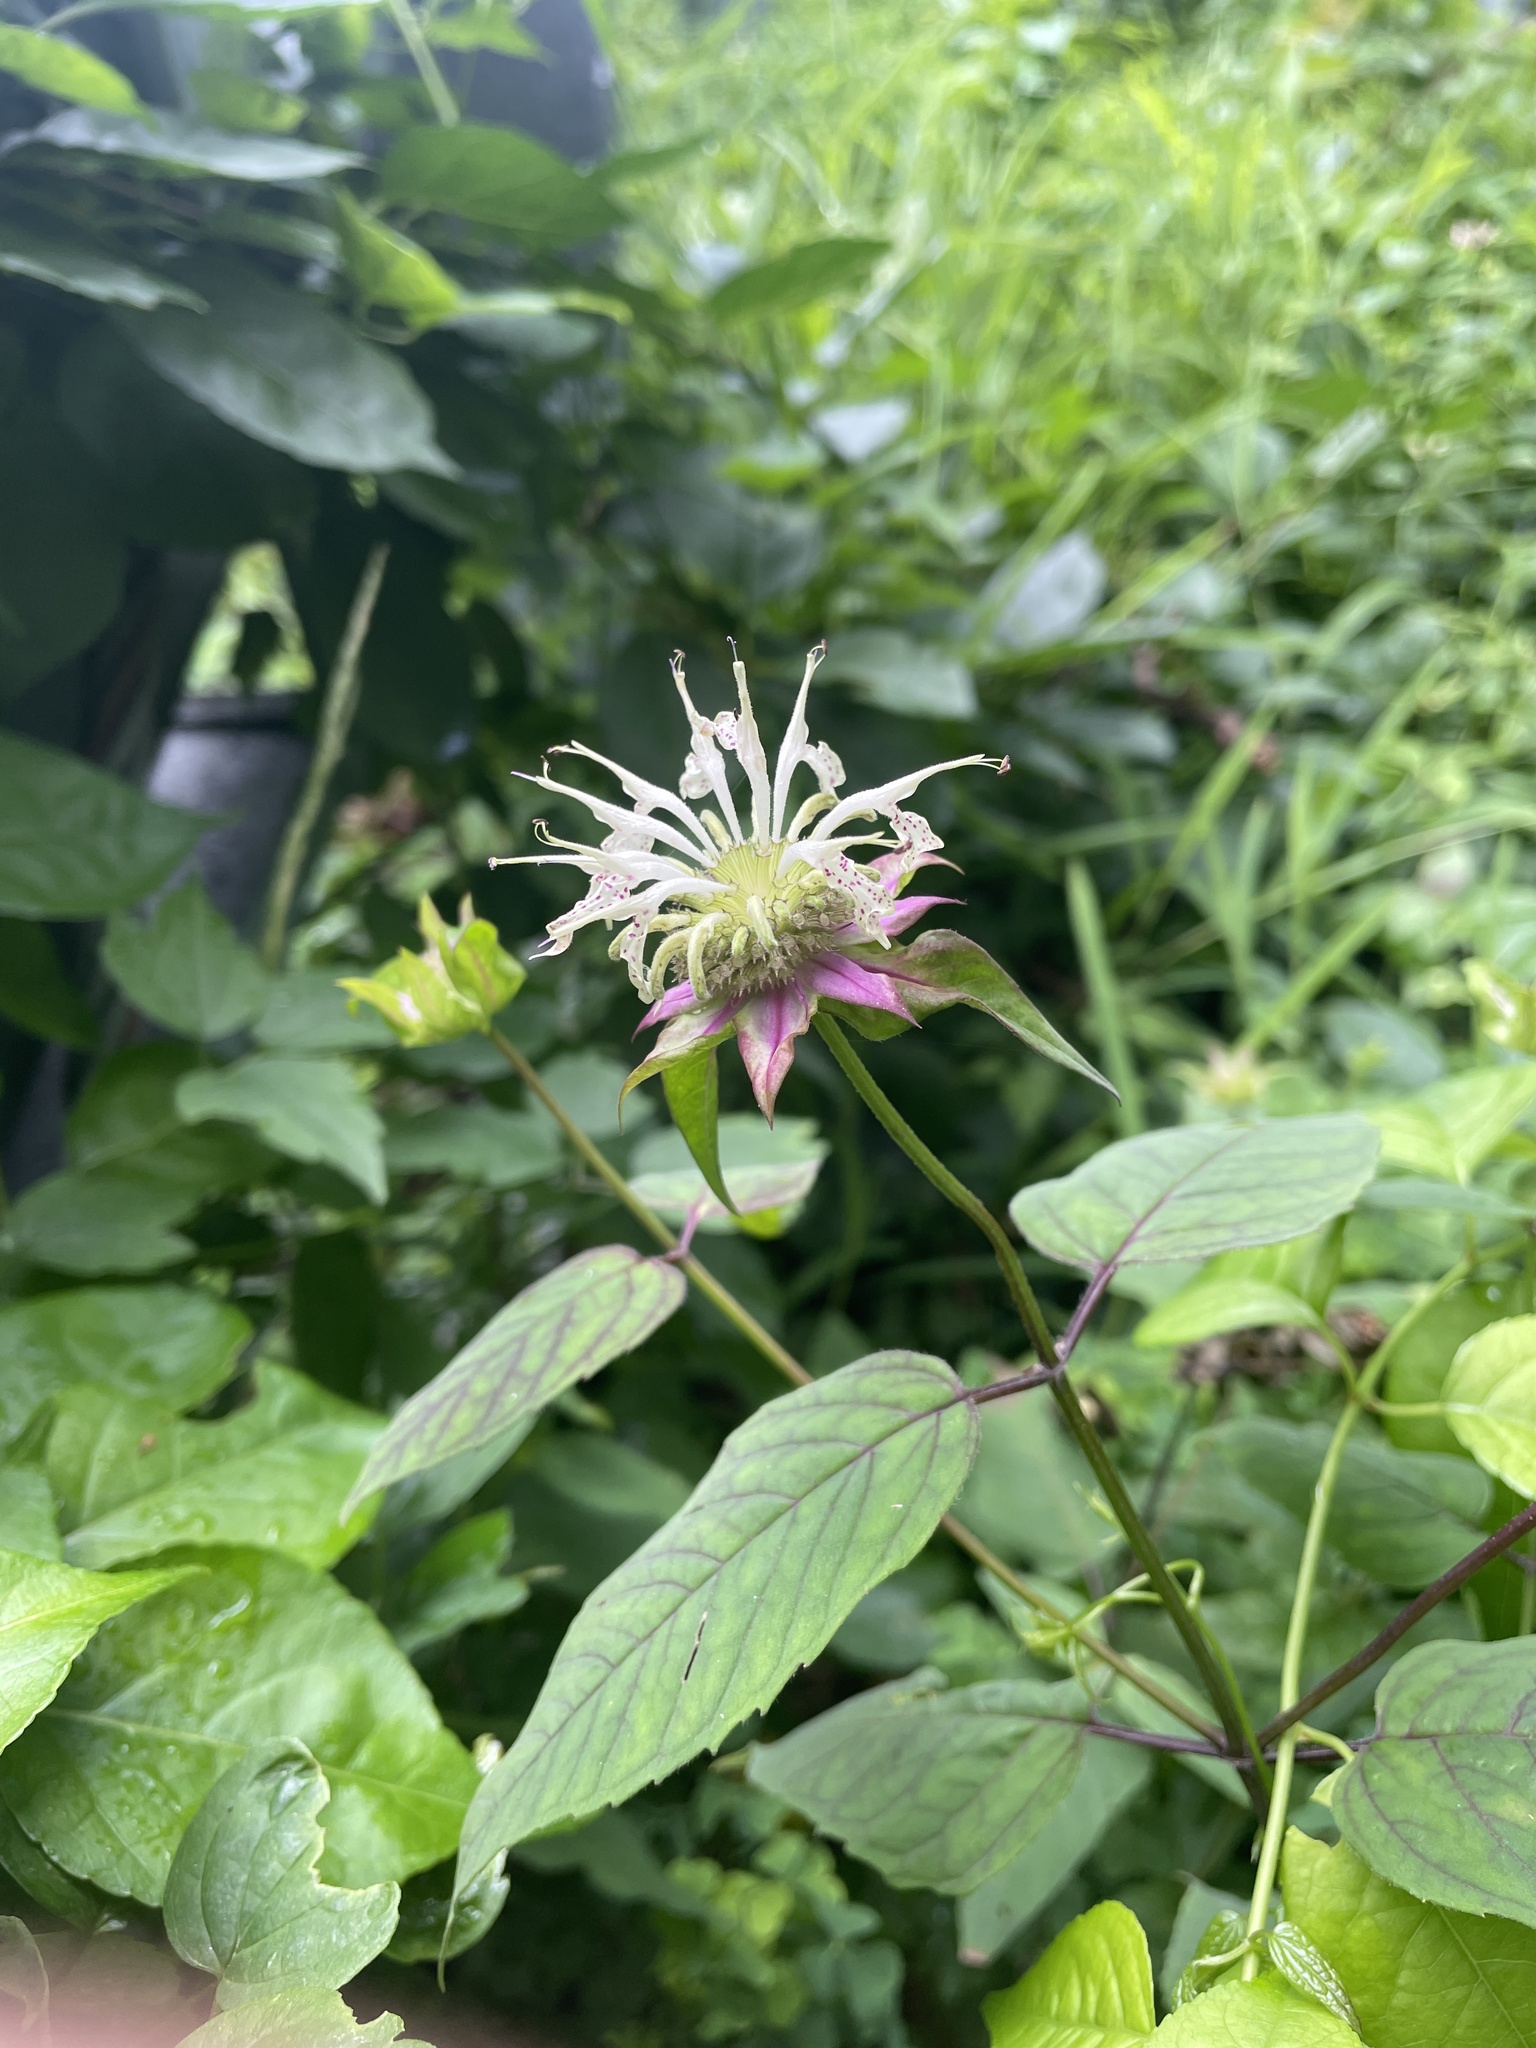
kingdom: Plantae
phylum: Tracheophyta
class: Magnoliopsida
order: Lamiales
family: Lamiaceae
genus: Monarda
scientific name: Monarda clinopodia
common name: Basil beebalm
